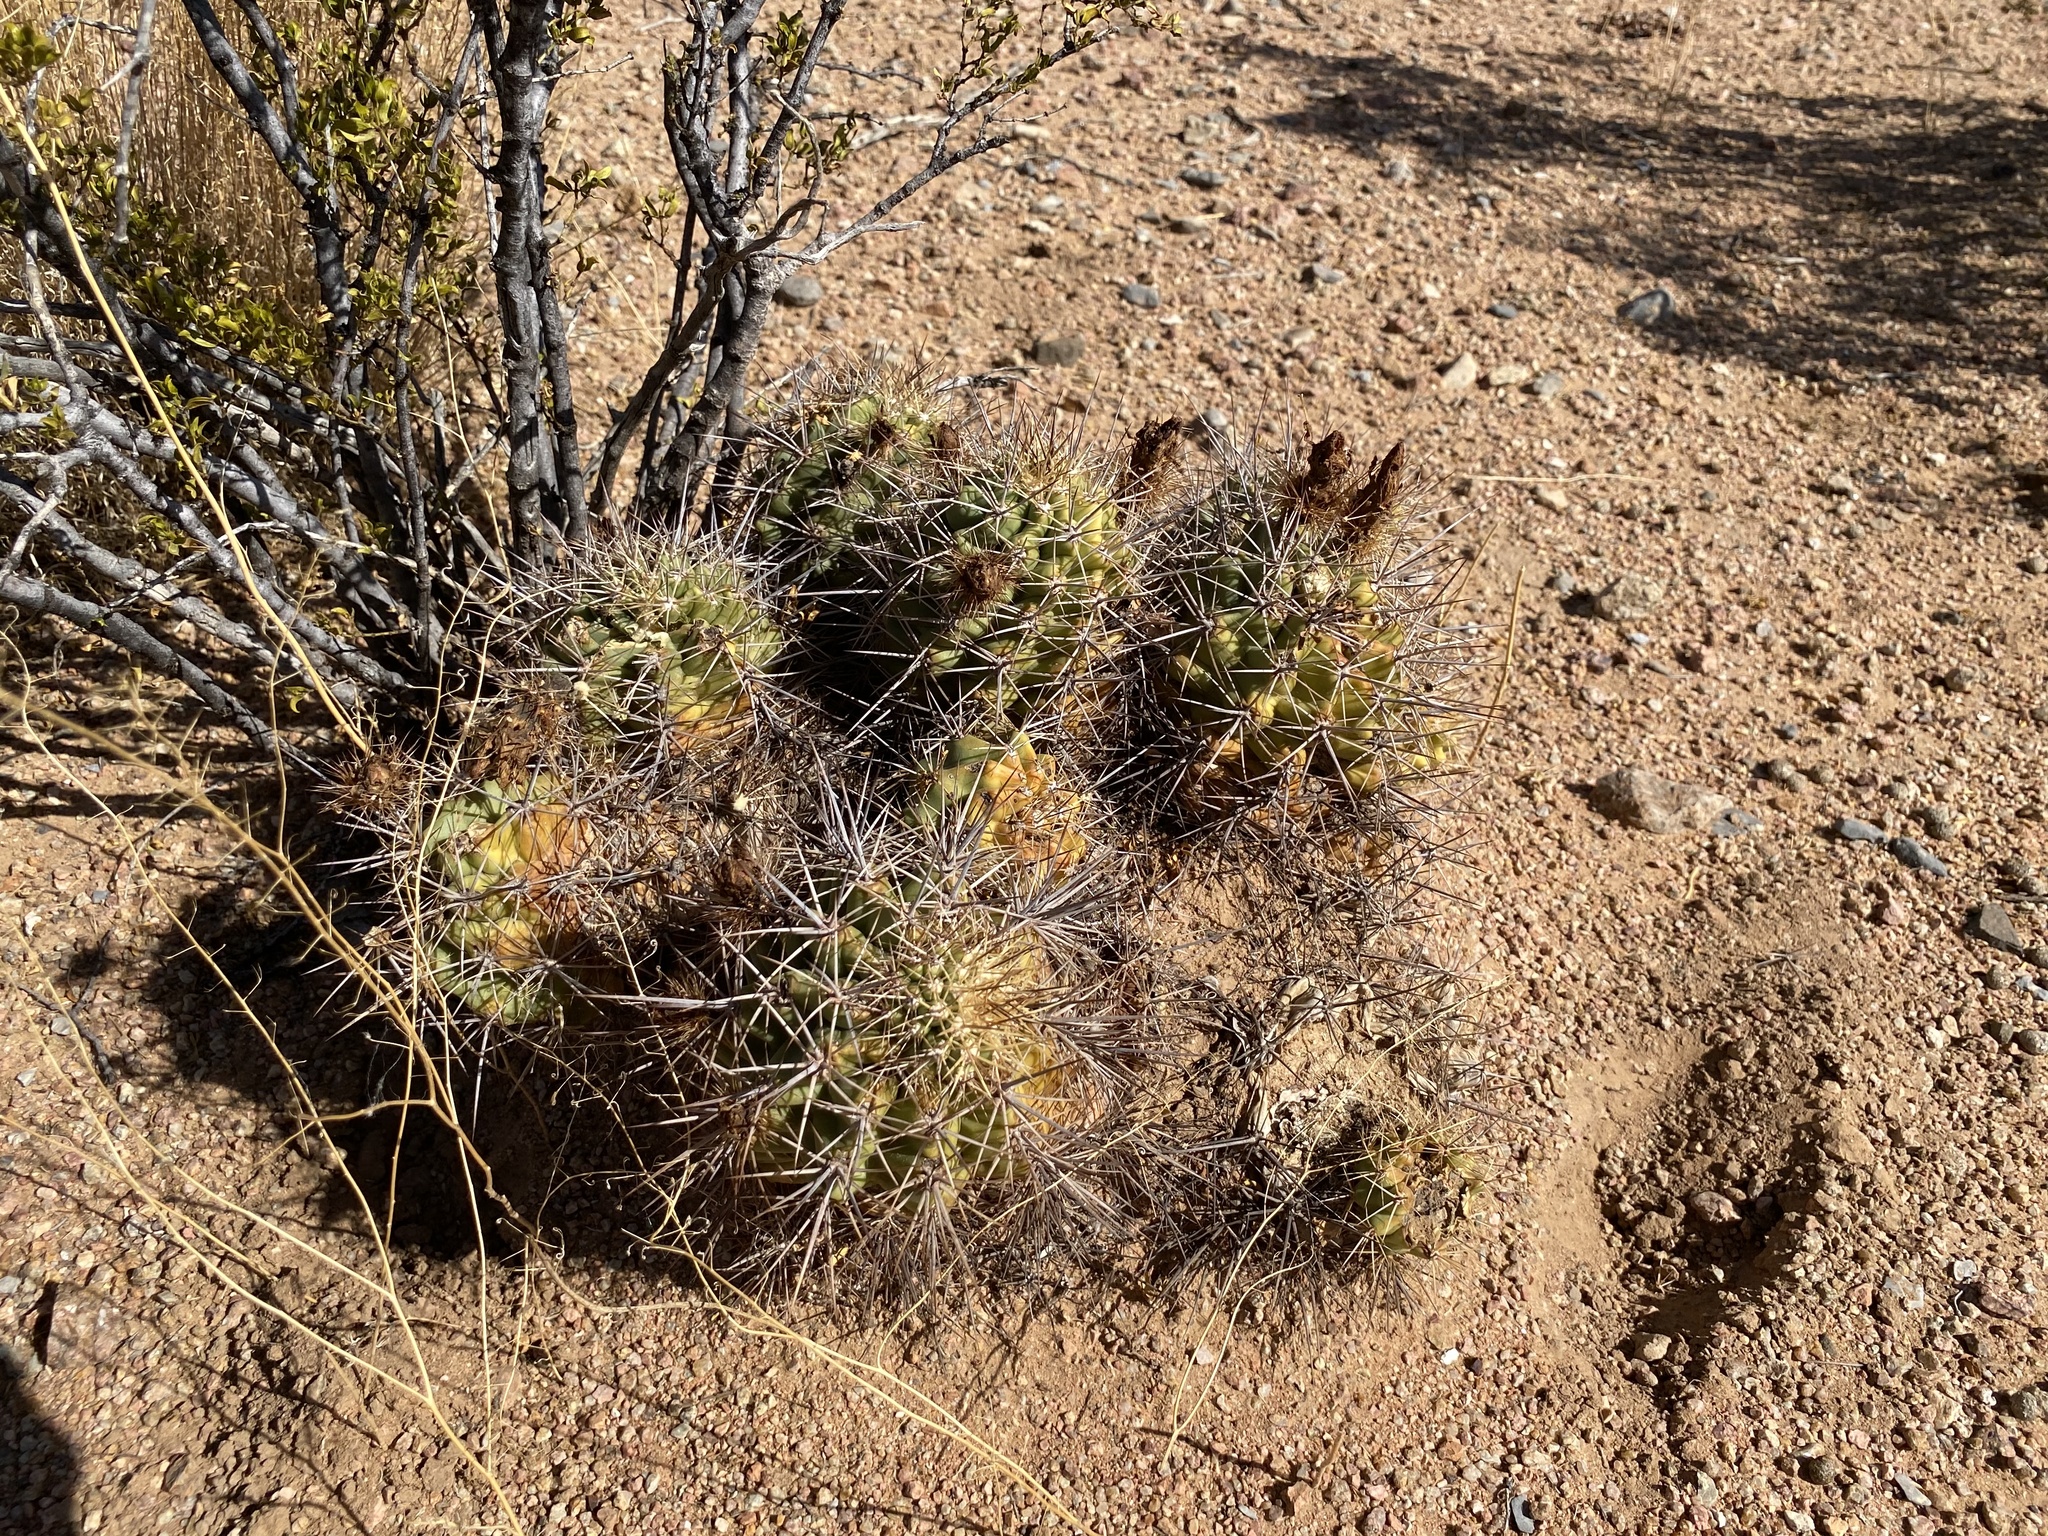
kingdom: Plantae
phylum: Tracheophyta
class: Magnoliopsida
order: Caryophyllales
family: Cactaceae
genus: Echinocereus
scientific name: Echinocereus coccineus
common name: Scarlet hedgehog cactus
